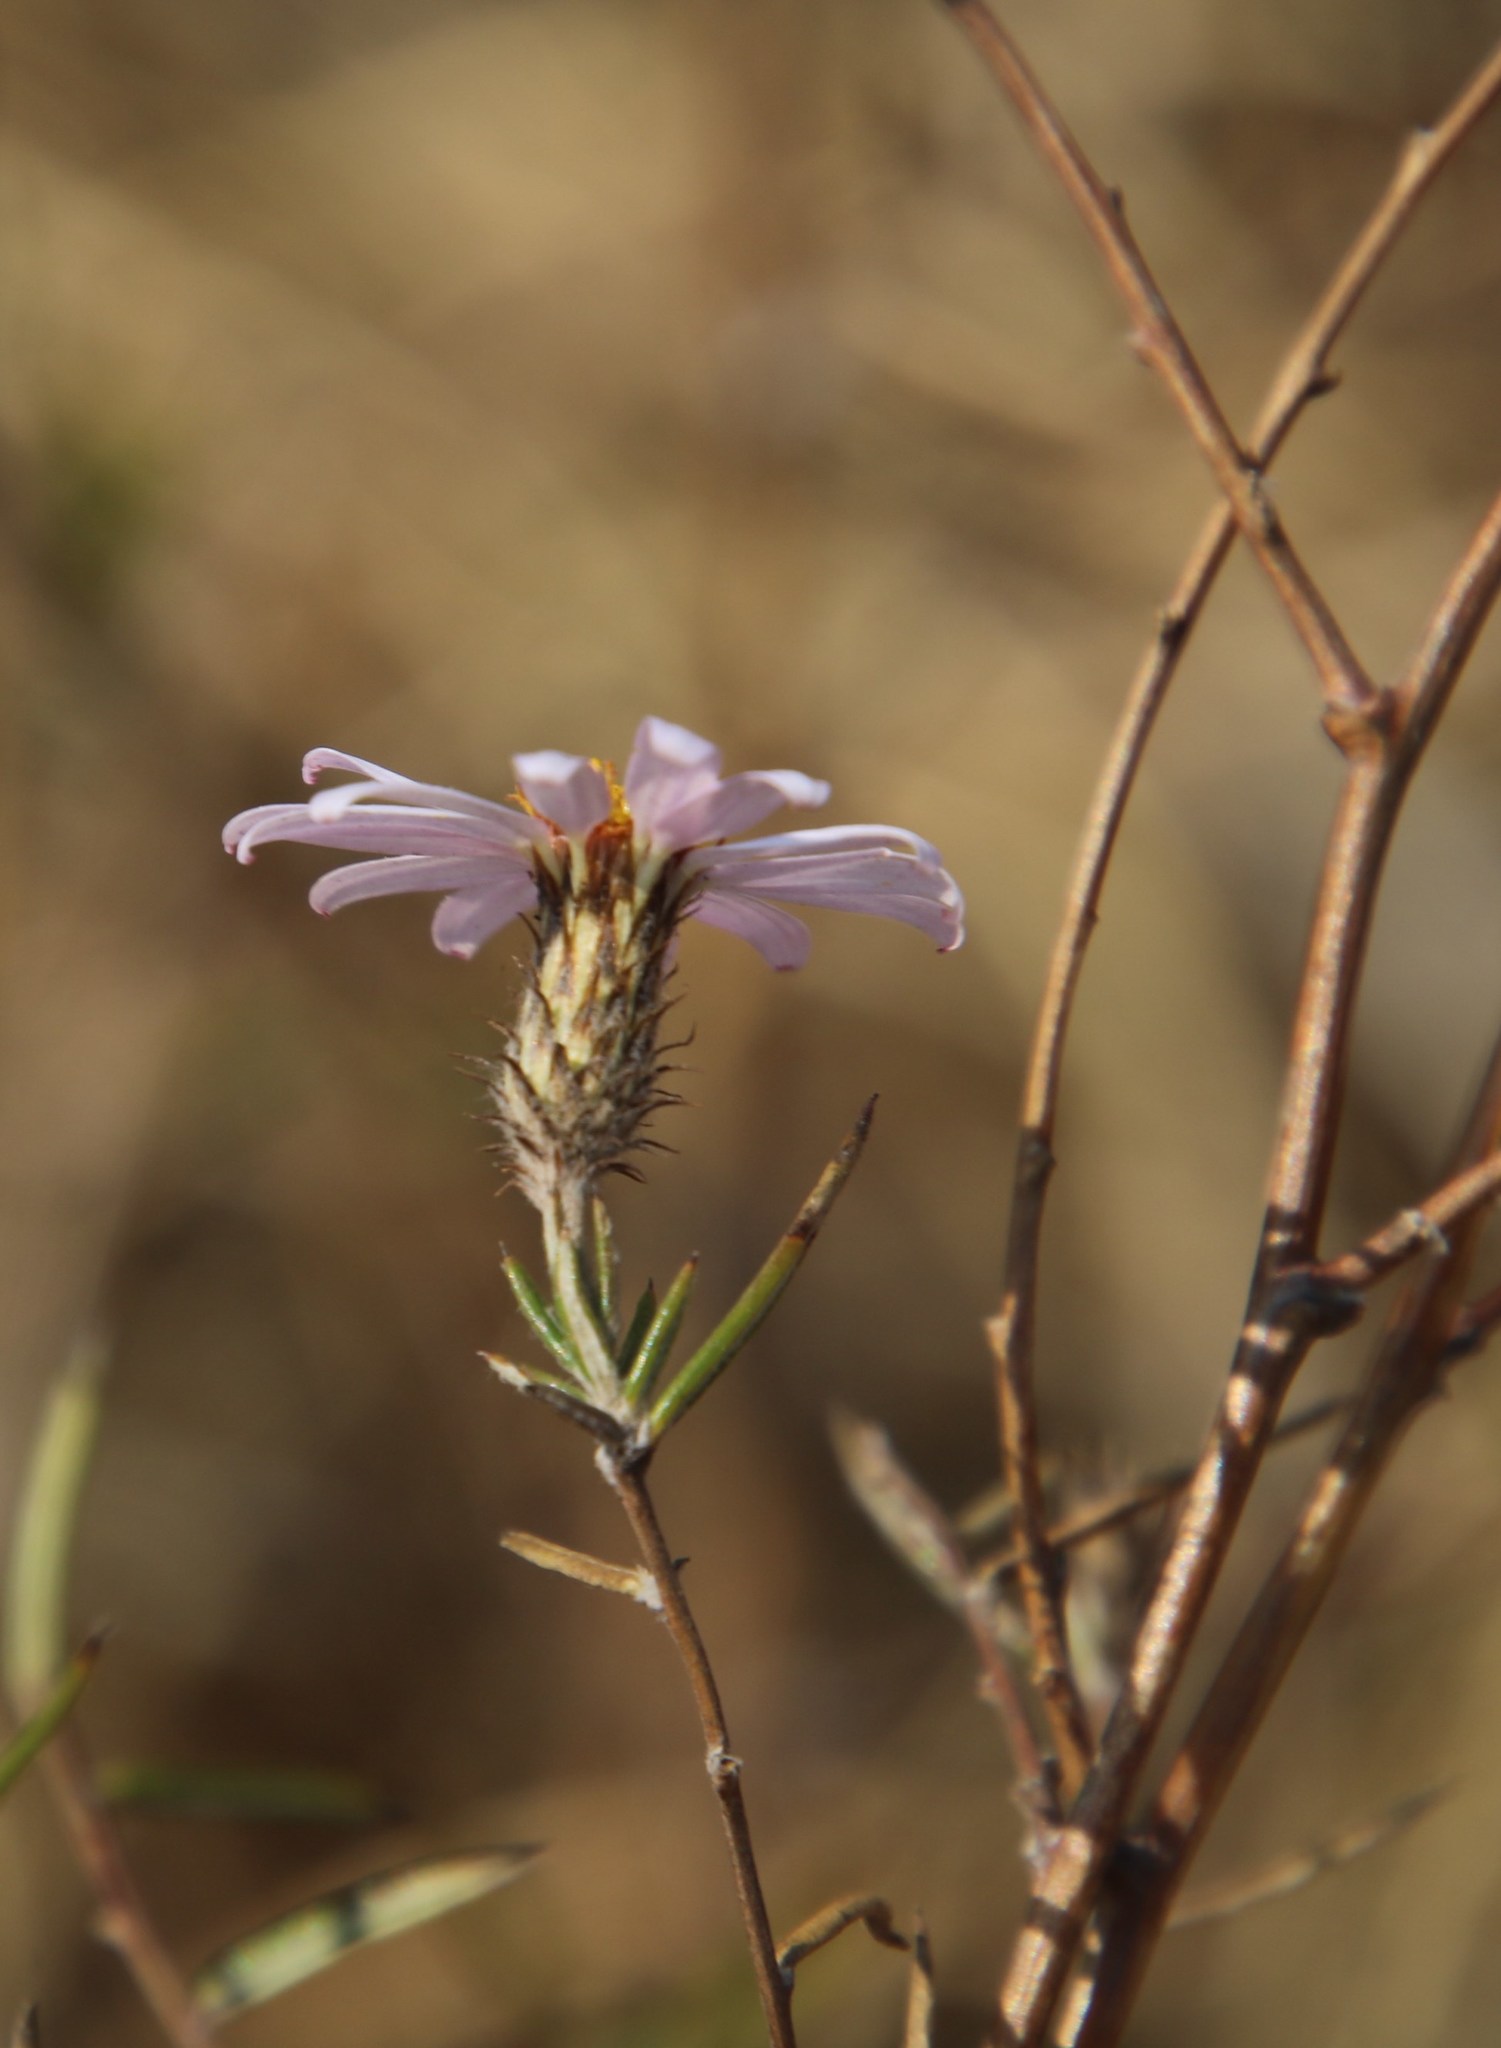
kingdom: Plantae
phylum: Tracheophyta
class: Magnoliopsida
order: Asterales
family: Asteraceae
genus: Athrixia
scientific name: Athrixia elata
